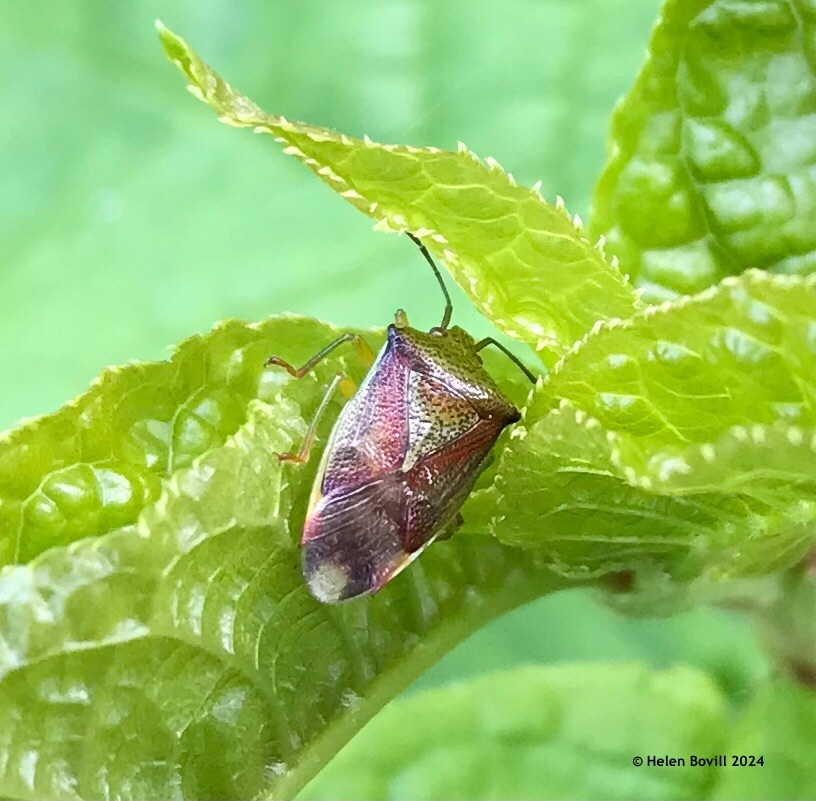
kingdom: Animalia
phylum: Arthropoda
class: Insecta
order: Hemiptera
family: Acanthosomatidae
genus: Elasmostethus
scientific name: Elasmostethus interstinctus
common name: Birch shieldbug
